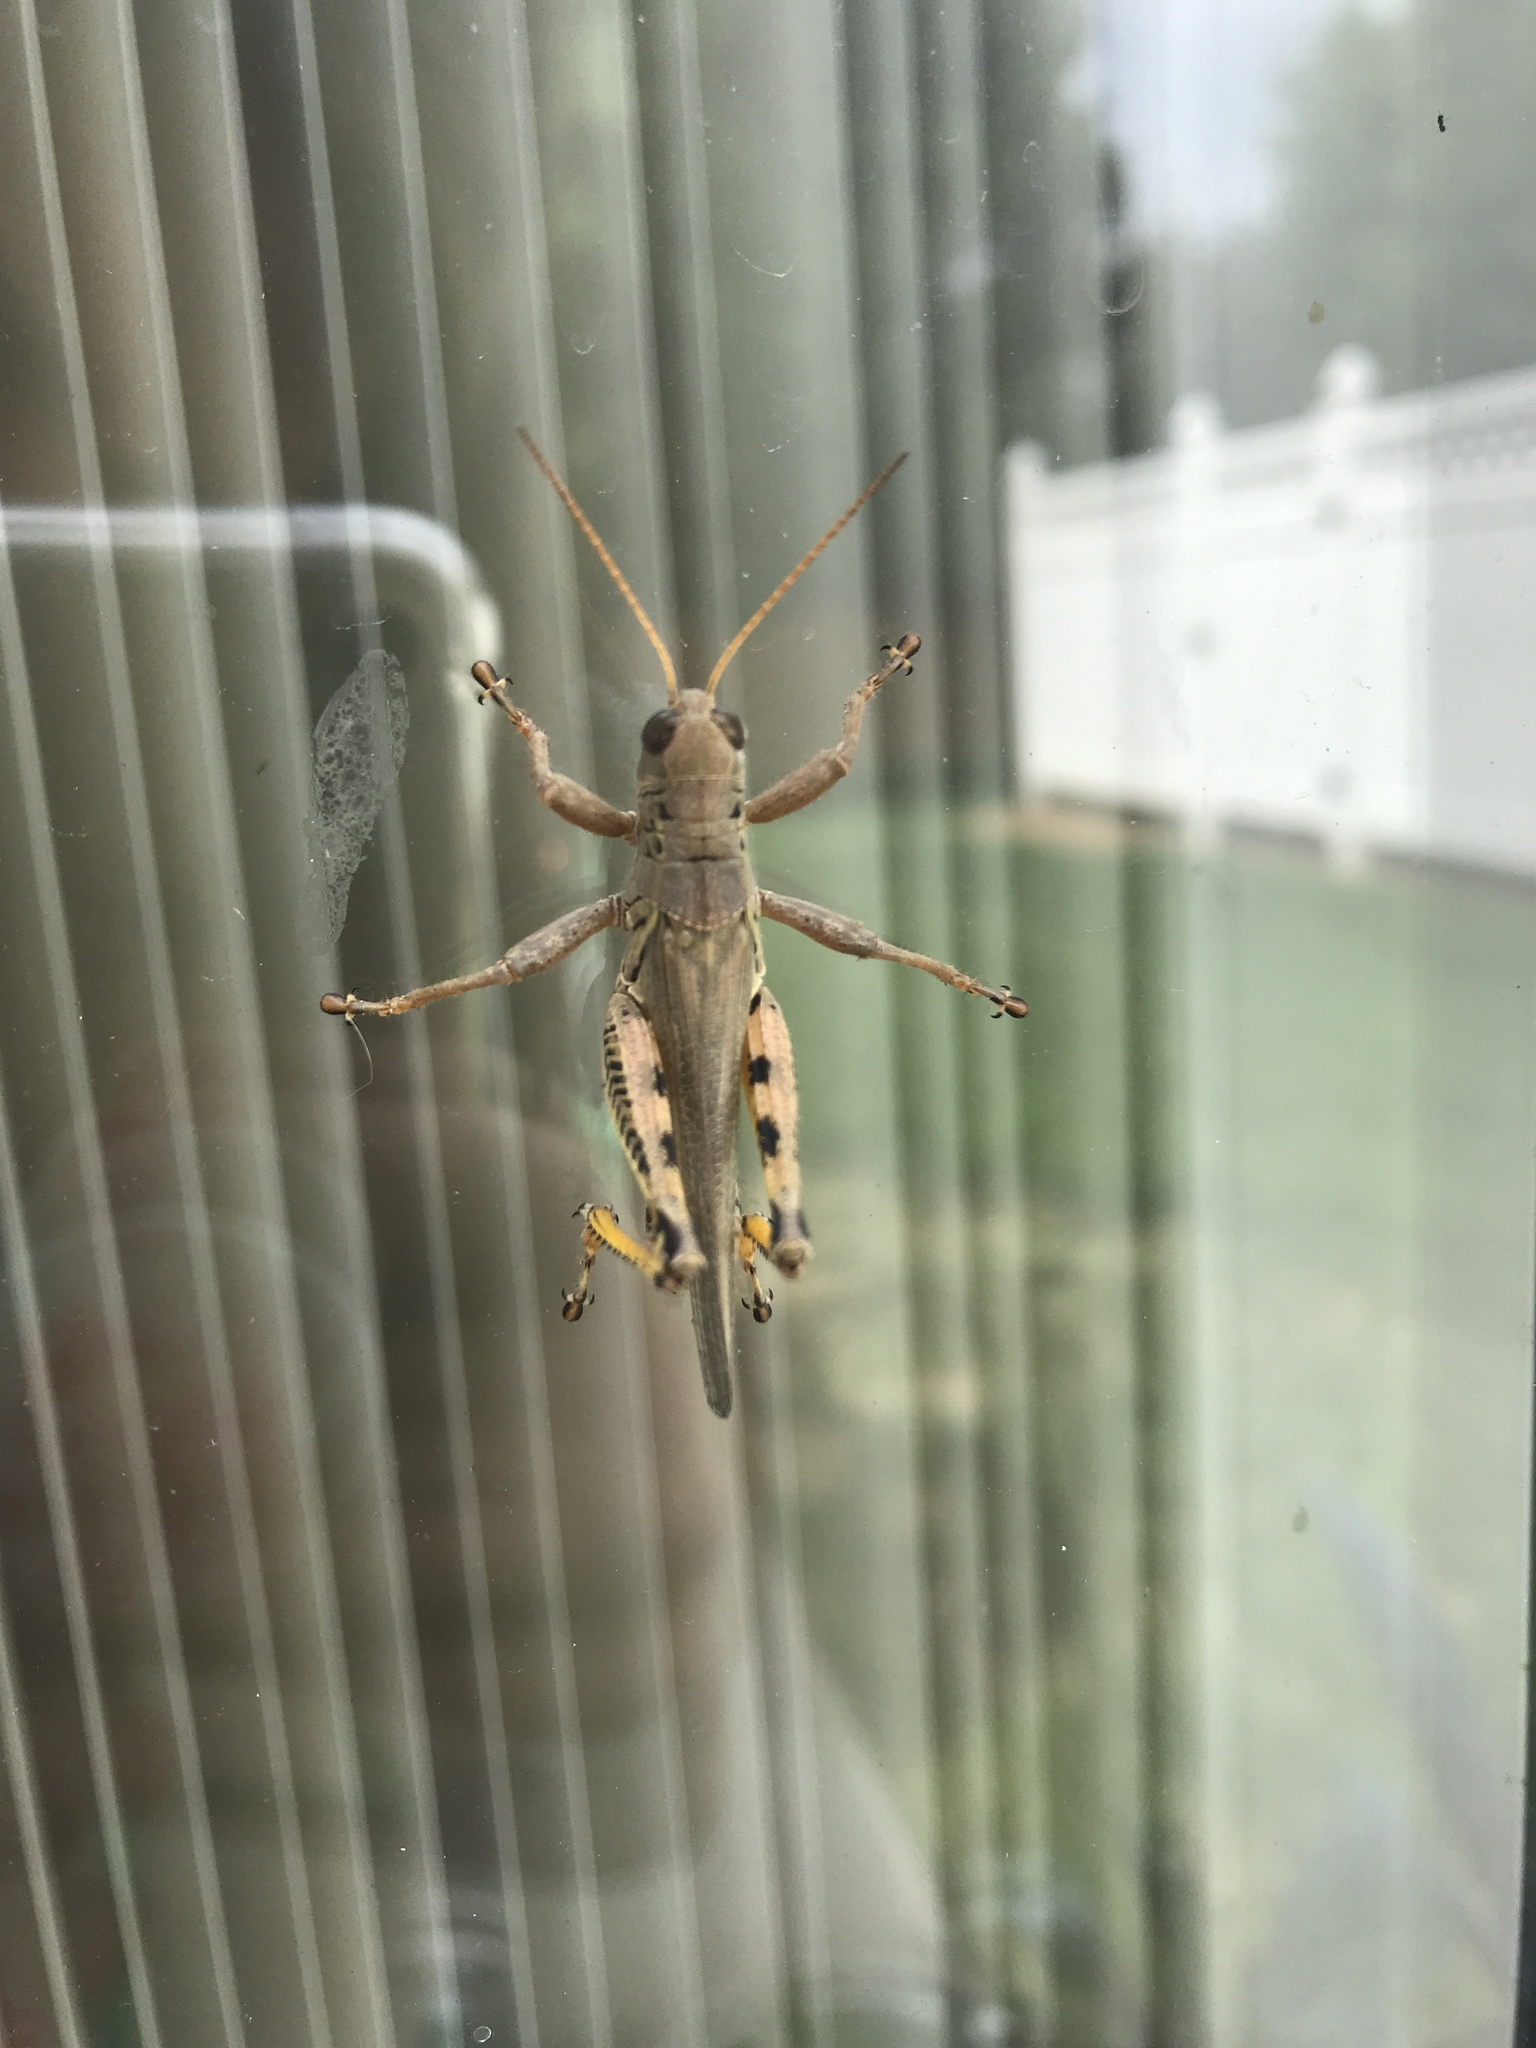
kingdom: Animalia
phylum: Arthropoda
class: Insecta
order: Orthoptera
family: Acrididae
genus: Melanoplus
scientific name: Melanoplus differentialis
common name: Differential grasshopper
